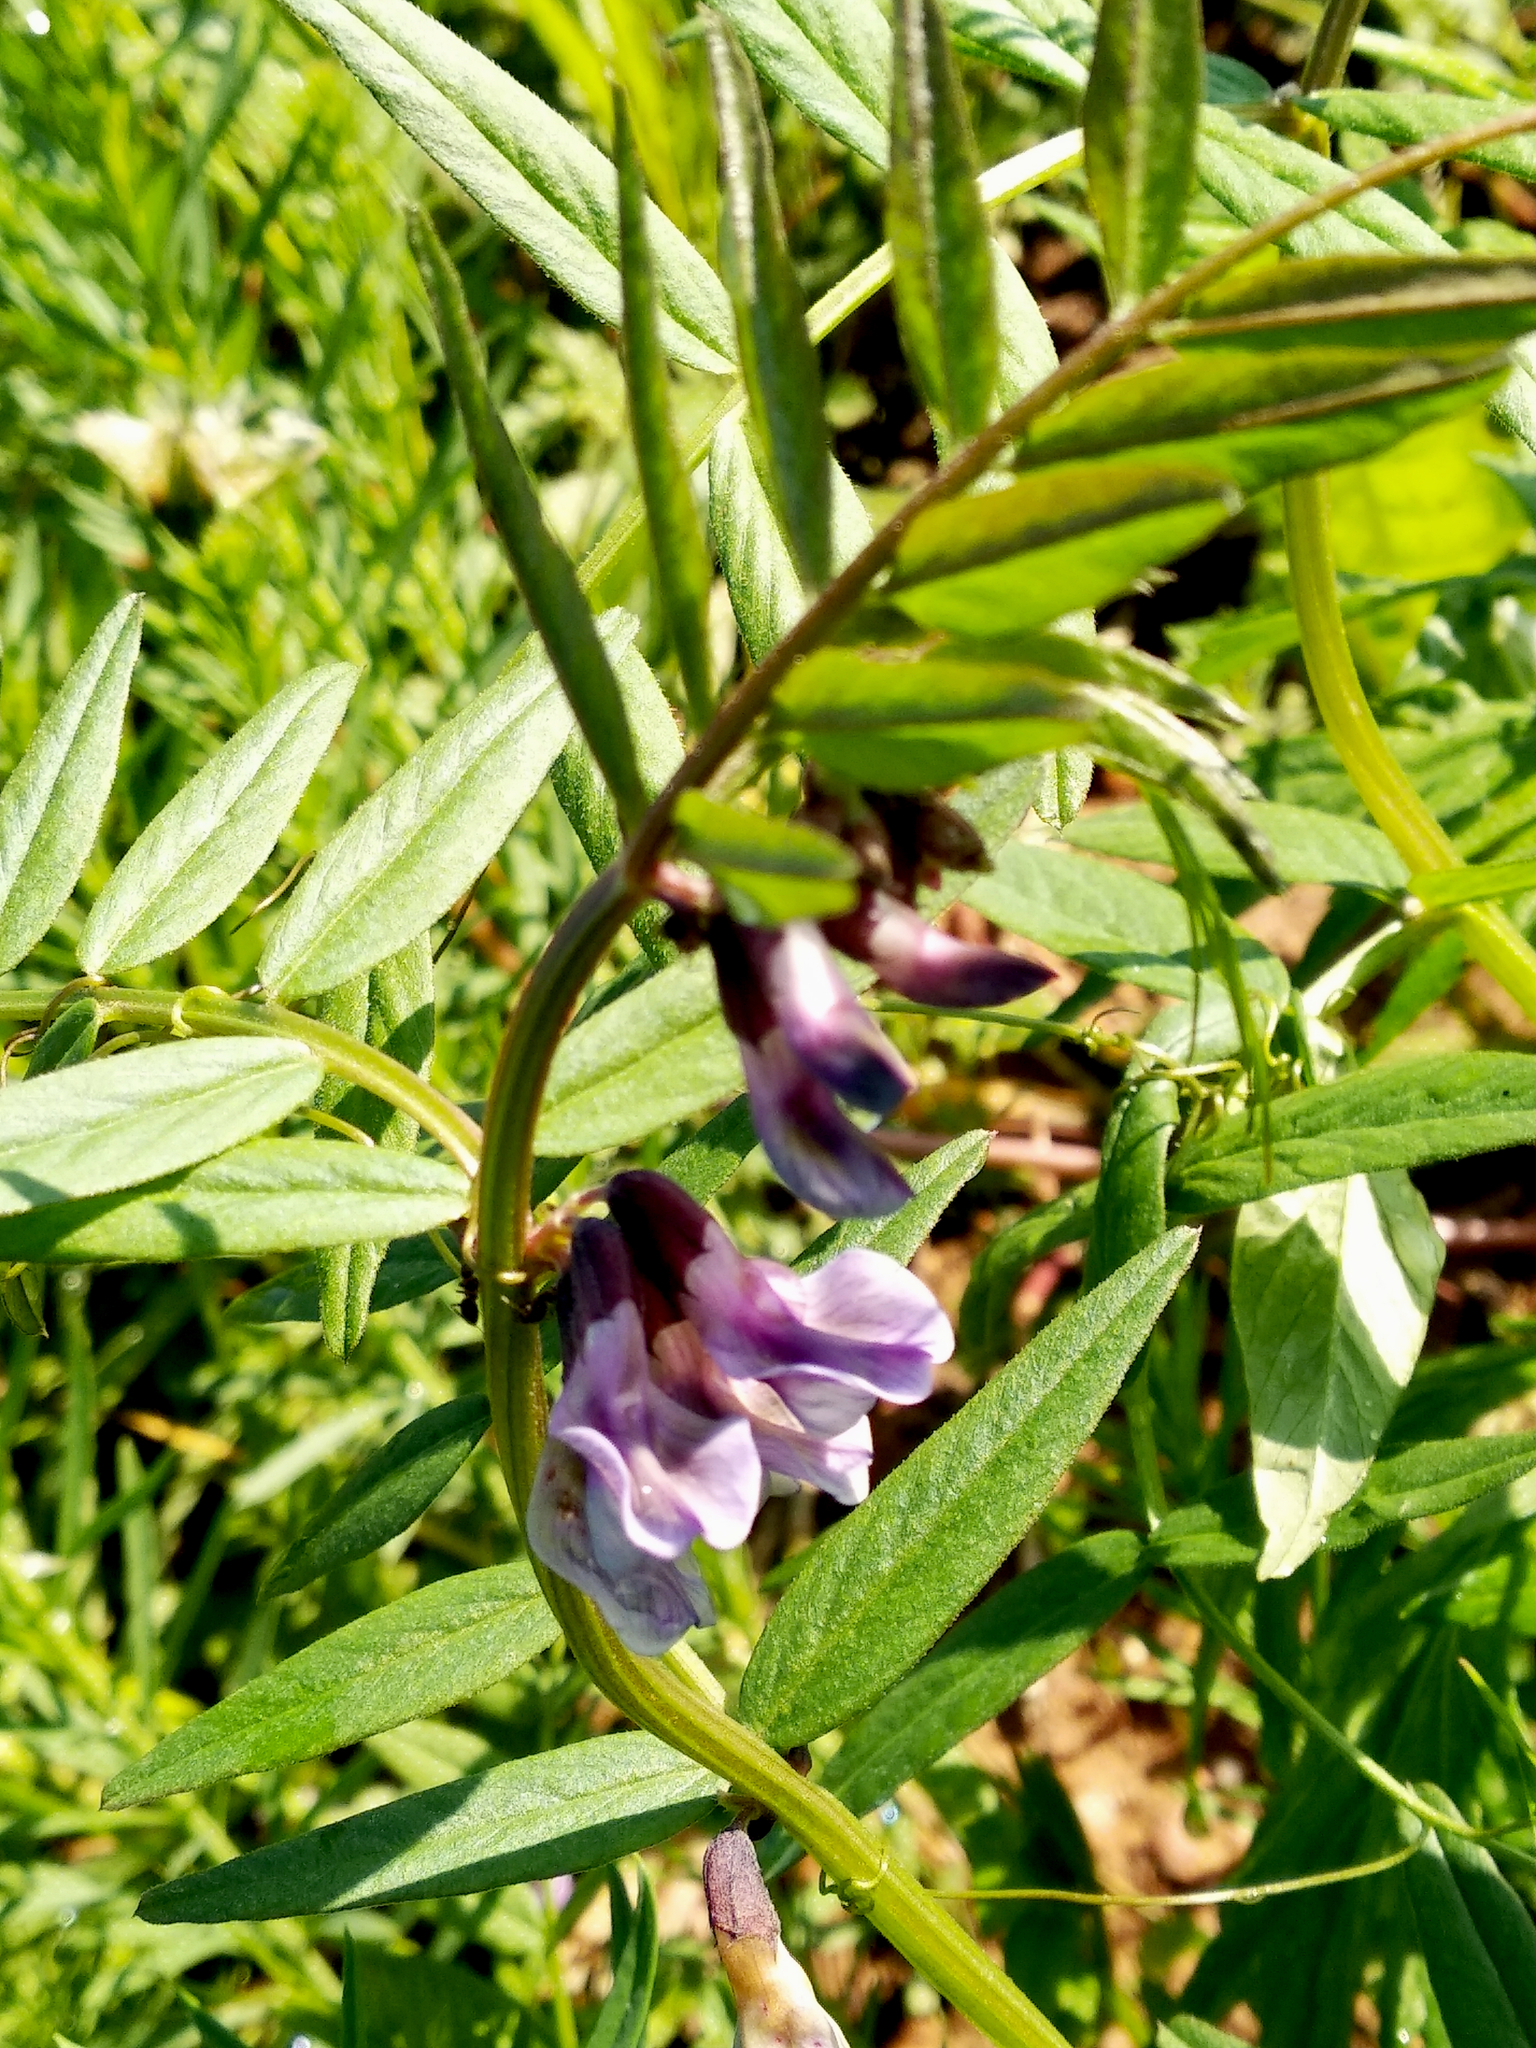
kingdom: Plantae
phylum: Tracheophyta
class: Magnoliopsida
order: Fabales
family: Fabaceae
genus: Vicia
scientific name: Vicia sepium
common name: Bush vetch
